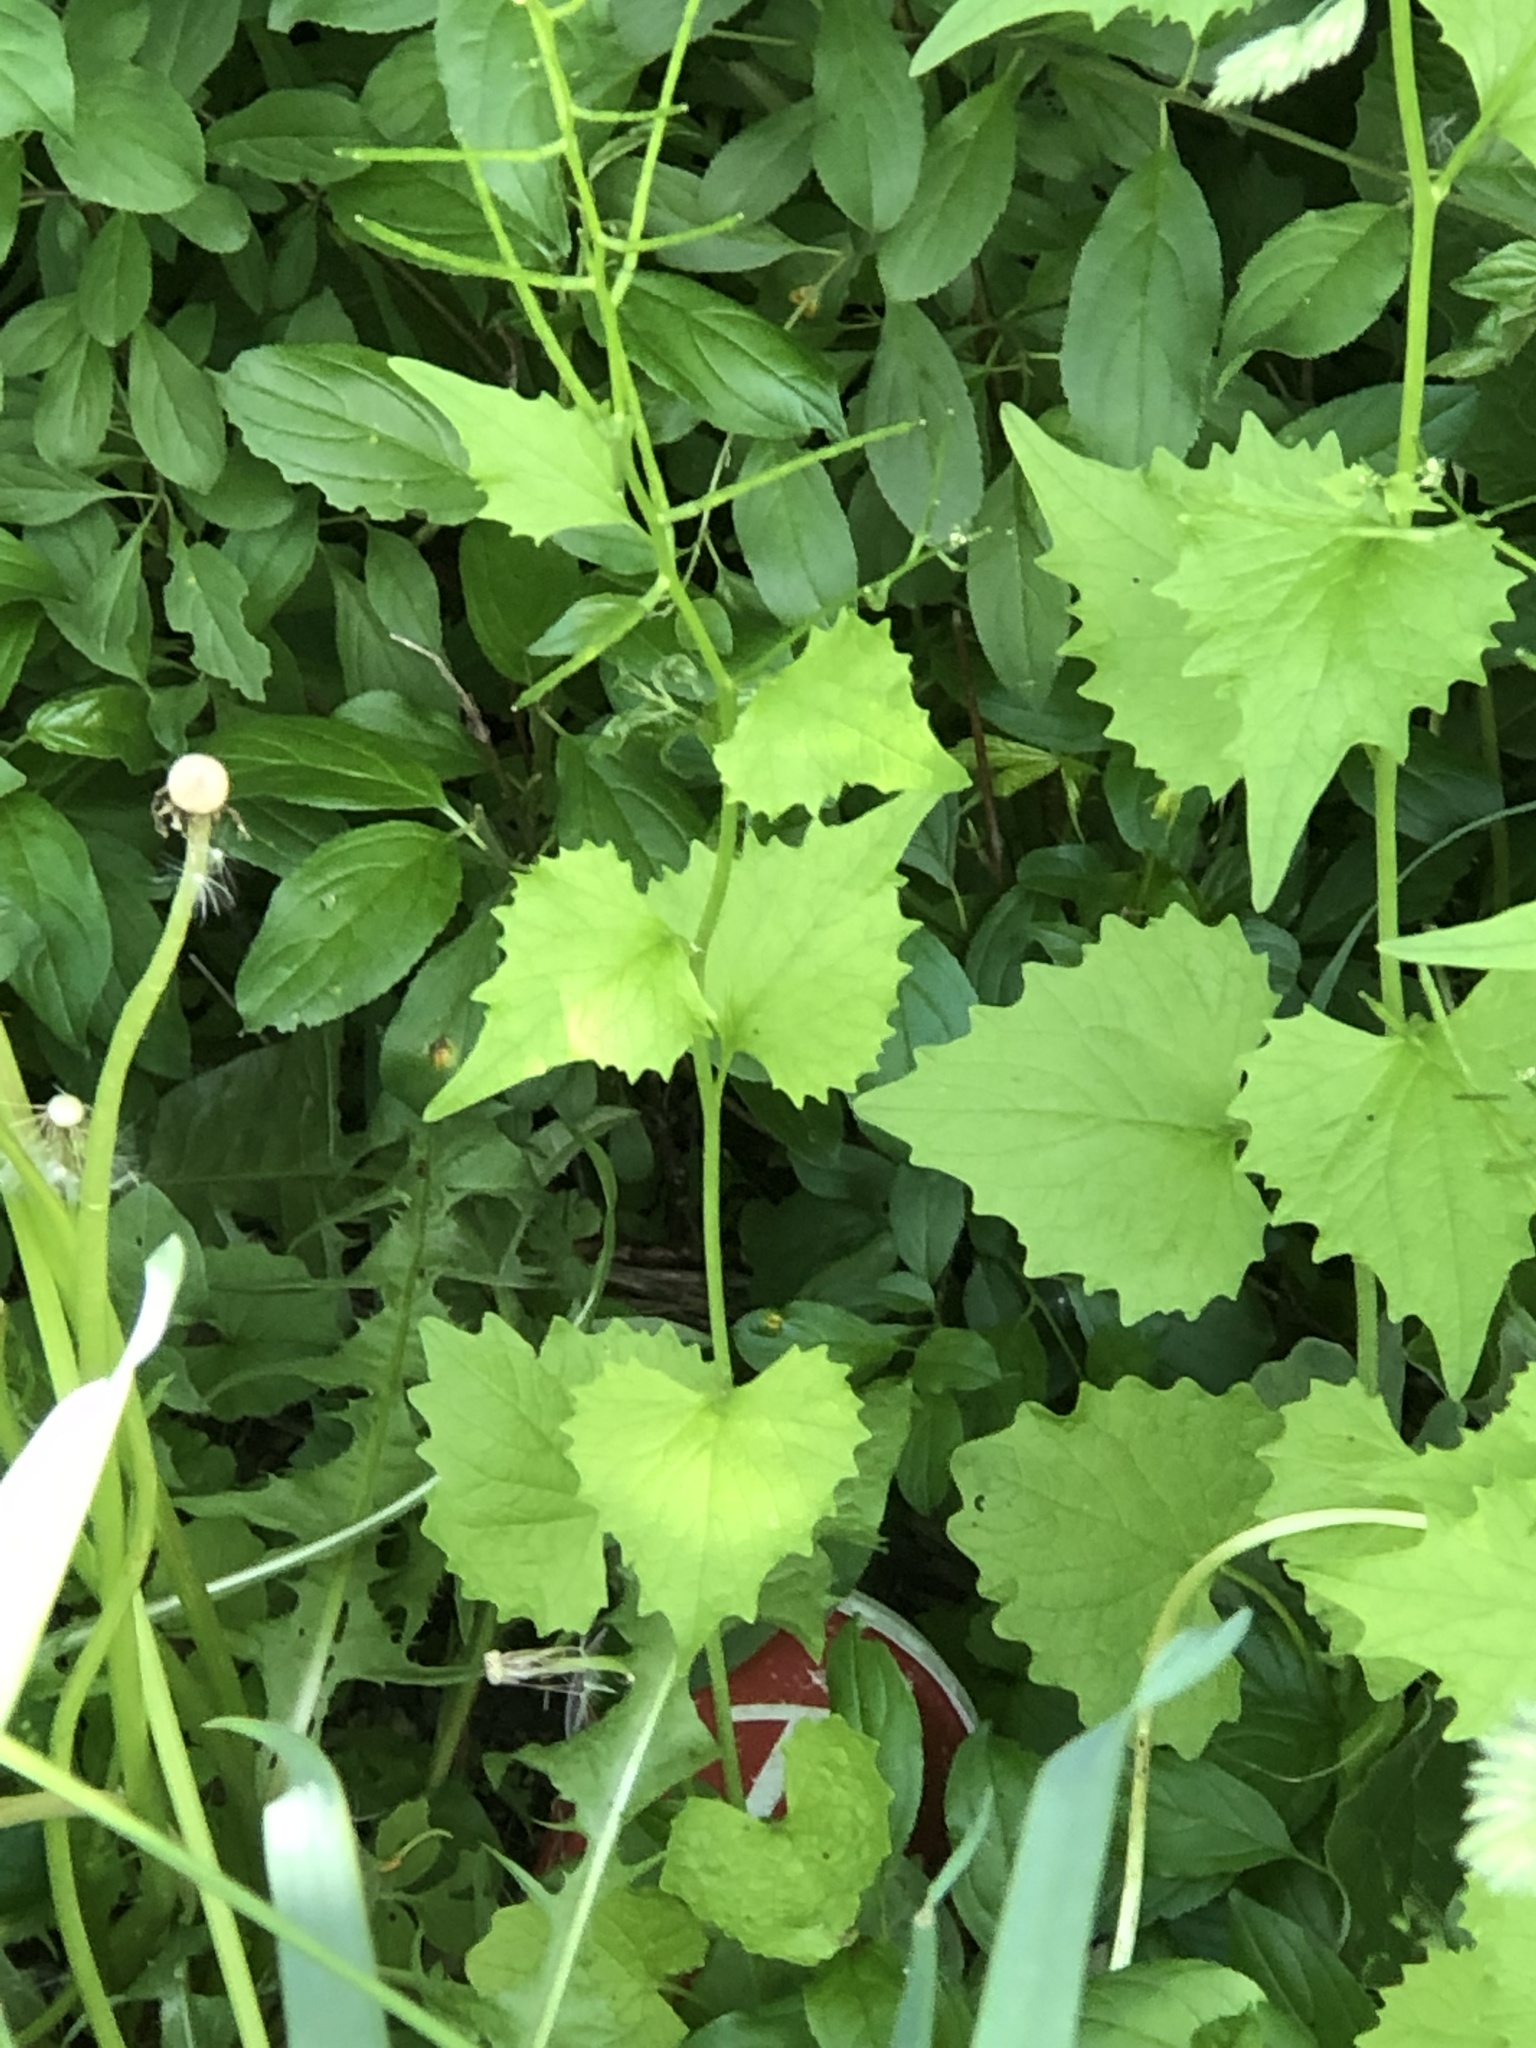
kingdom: Plantae
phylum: Tracheophyta
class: Magnoliopsida
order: Brassicales
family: Brassicaceae
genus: Alliaria
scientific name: Alliaria petiolata
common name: Garlic mustard
